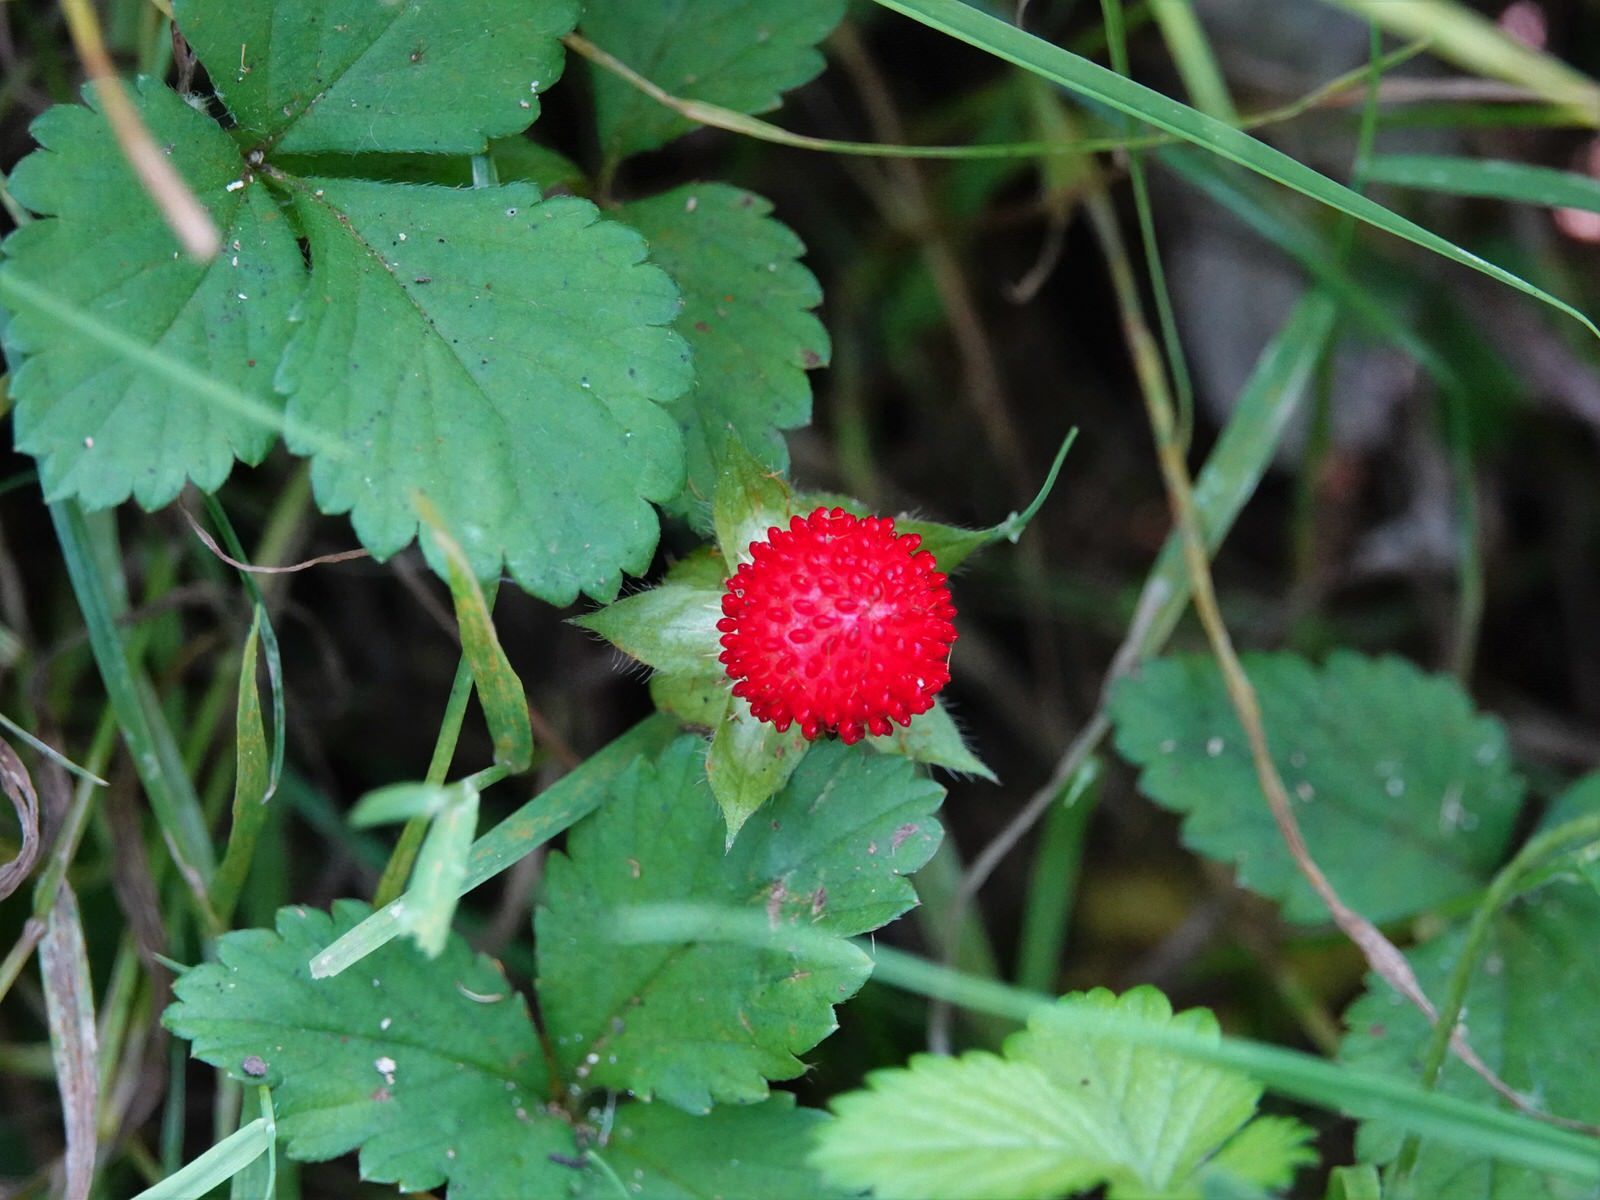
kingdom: Plantae
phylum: Tracheophyta
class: Magnoliopsida
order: Rosales
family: Rosaceae
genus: Potentilla
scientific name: Potentilla indica
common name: Yellow-flowered strawberry
